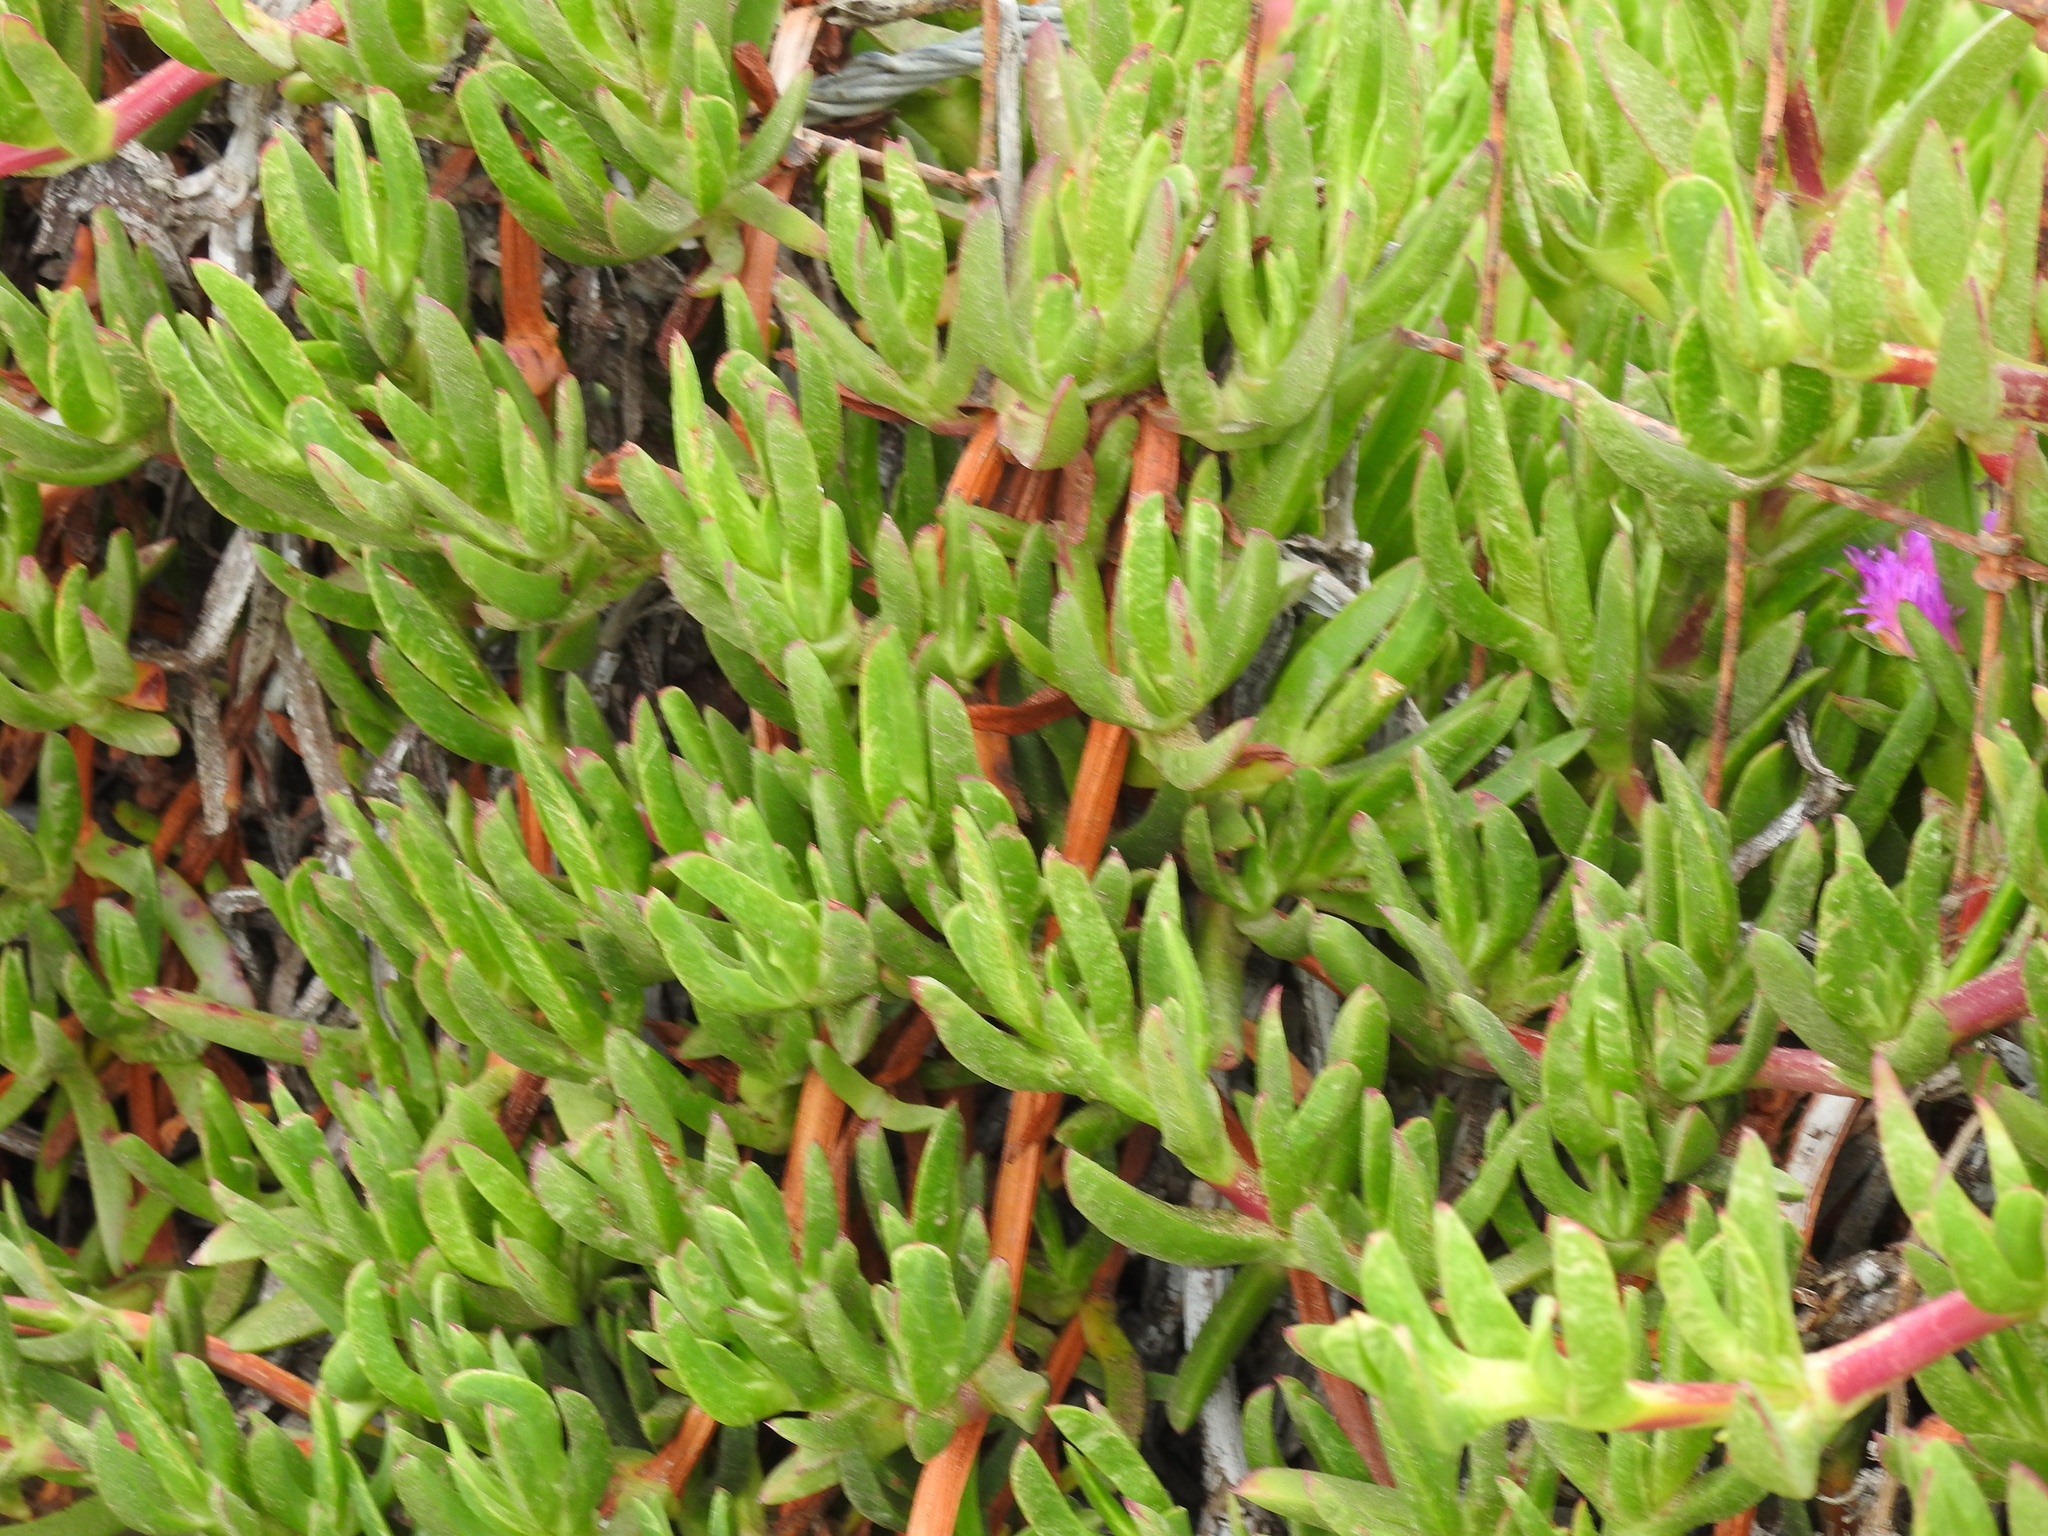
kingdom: Plantae
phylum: Tracheophyta
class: Magnoliopsida
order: Caryophyllales
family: Aizoaceae
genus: Carpobrotus
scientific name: Carpobrotus chilensis
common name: Sea fig
